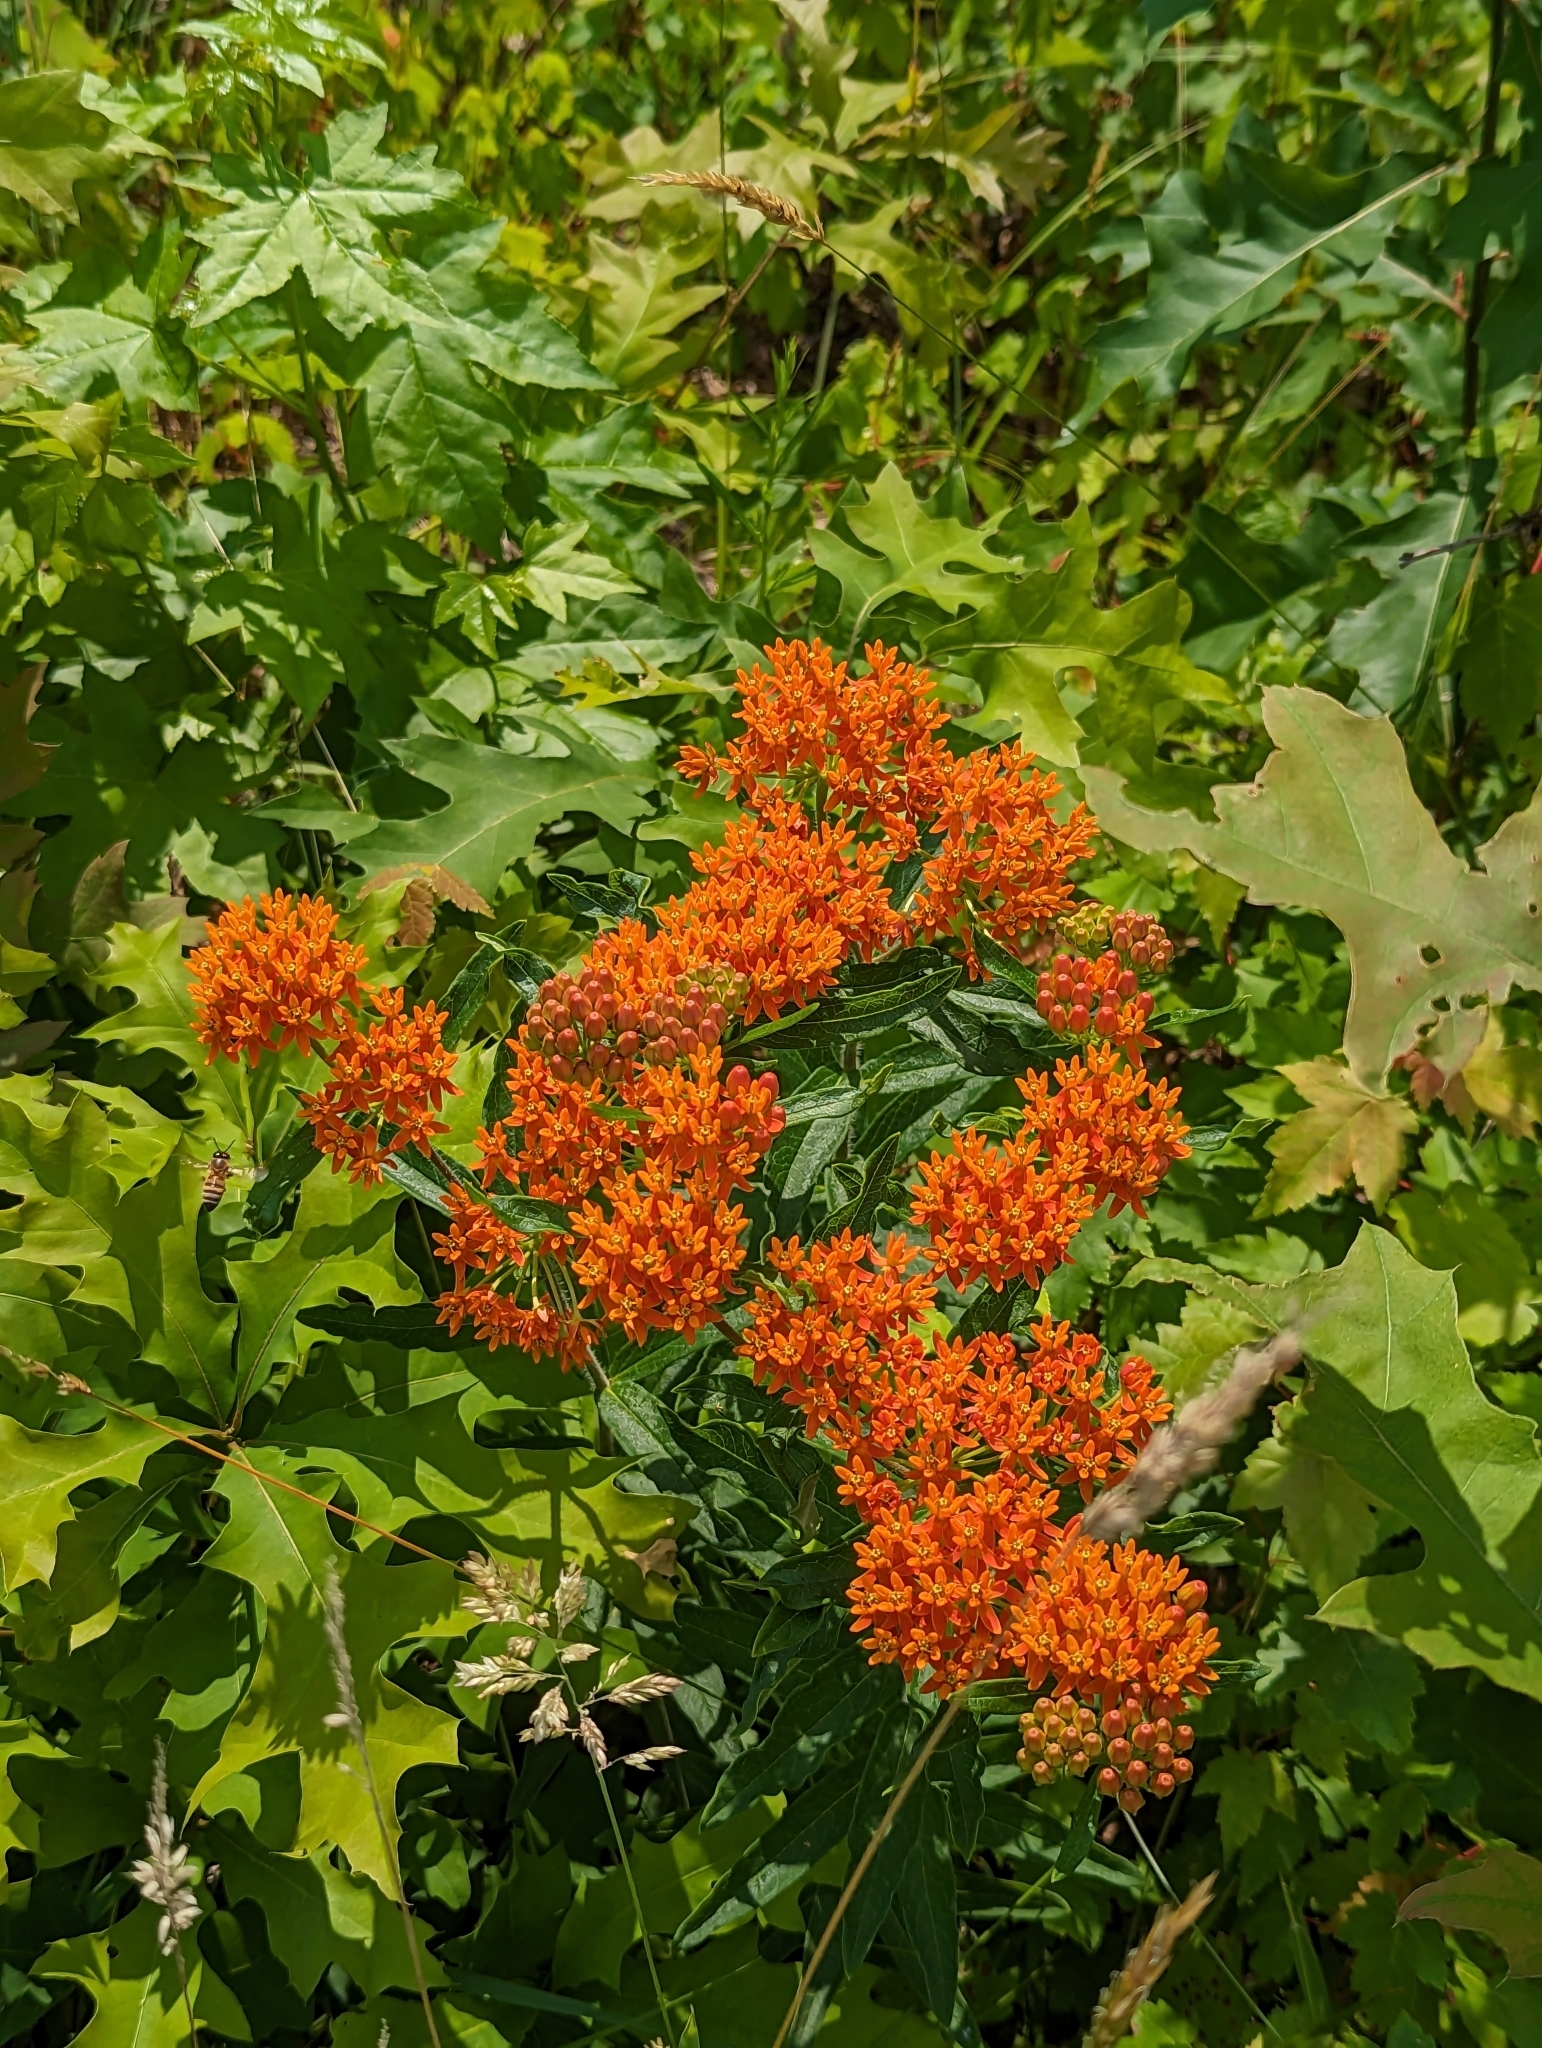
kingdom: Plantae
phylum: Tracheophyta
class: Magnoliopsida
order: Gentianales
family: Apocynaceae
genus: Asclepias
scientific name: Asclepias tuberosa
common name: Butterfly milkweed
